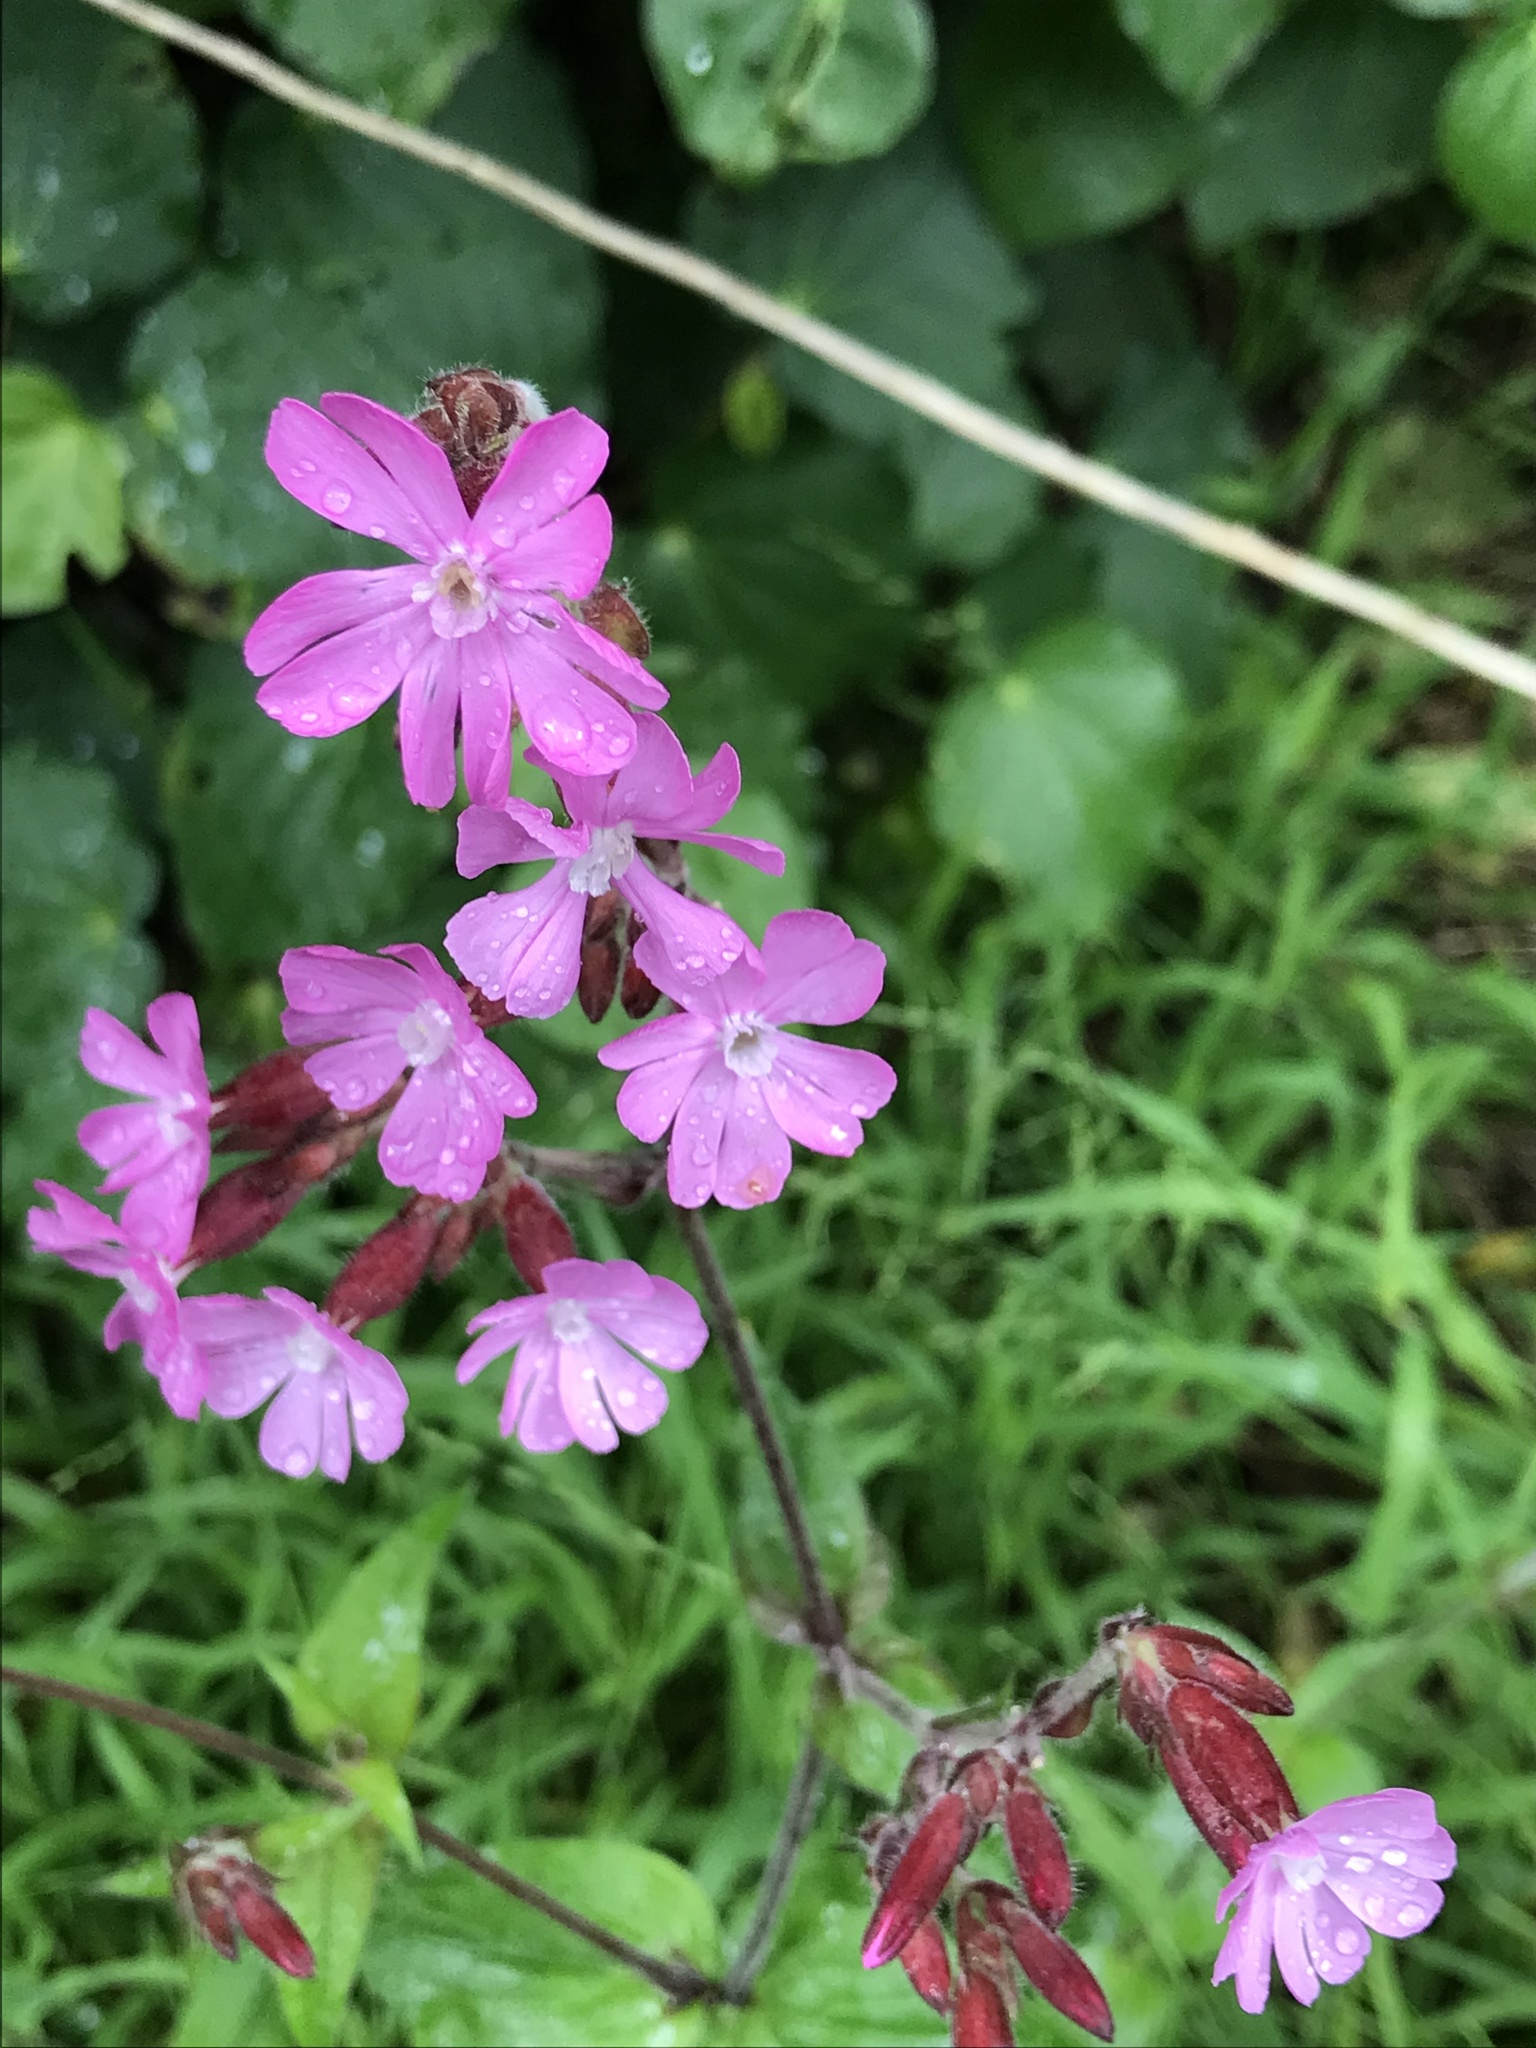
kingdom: Plantae
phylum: Tracheophyta
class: Magnoliopsida
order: Caryophyllales
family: Caryophyllaceae
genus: Silene
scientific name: Silene dioica
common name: Red campion
